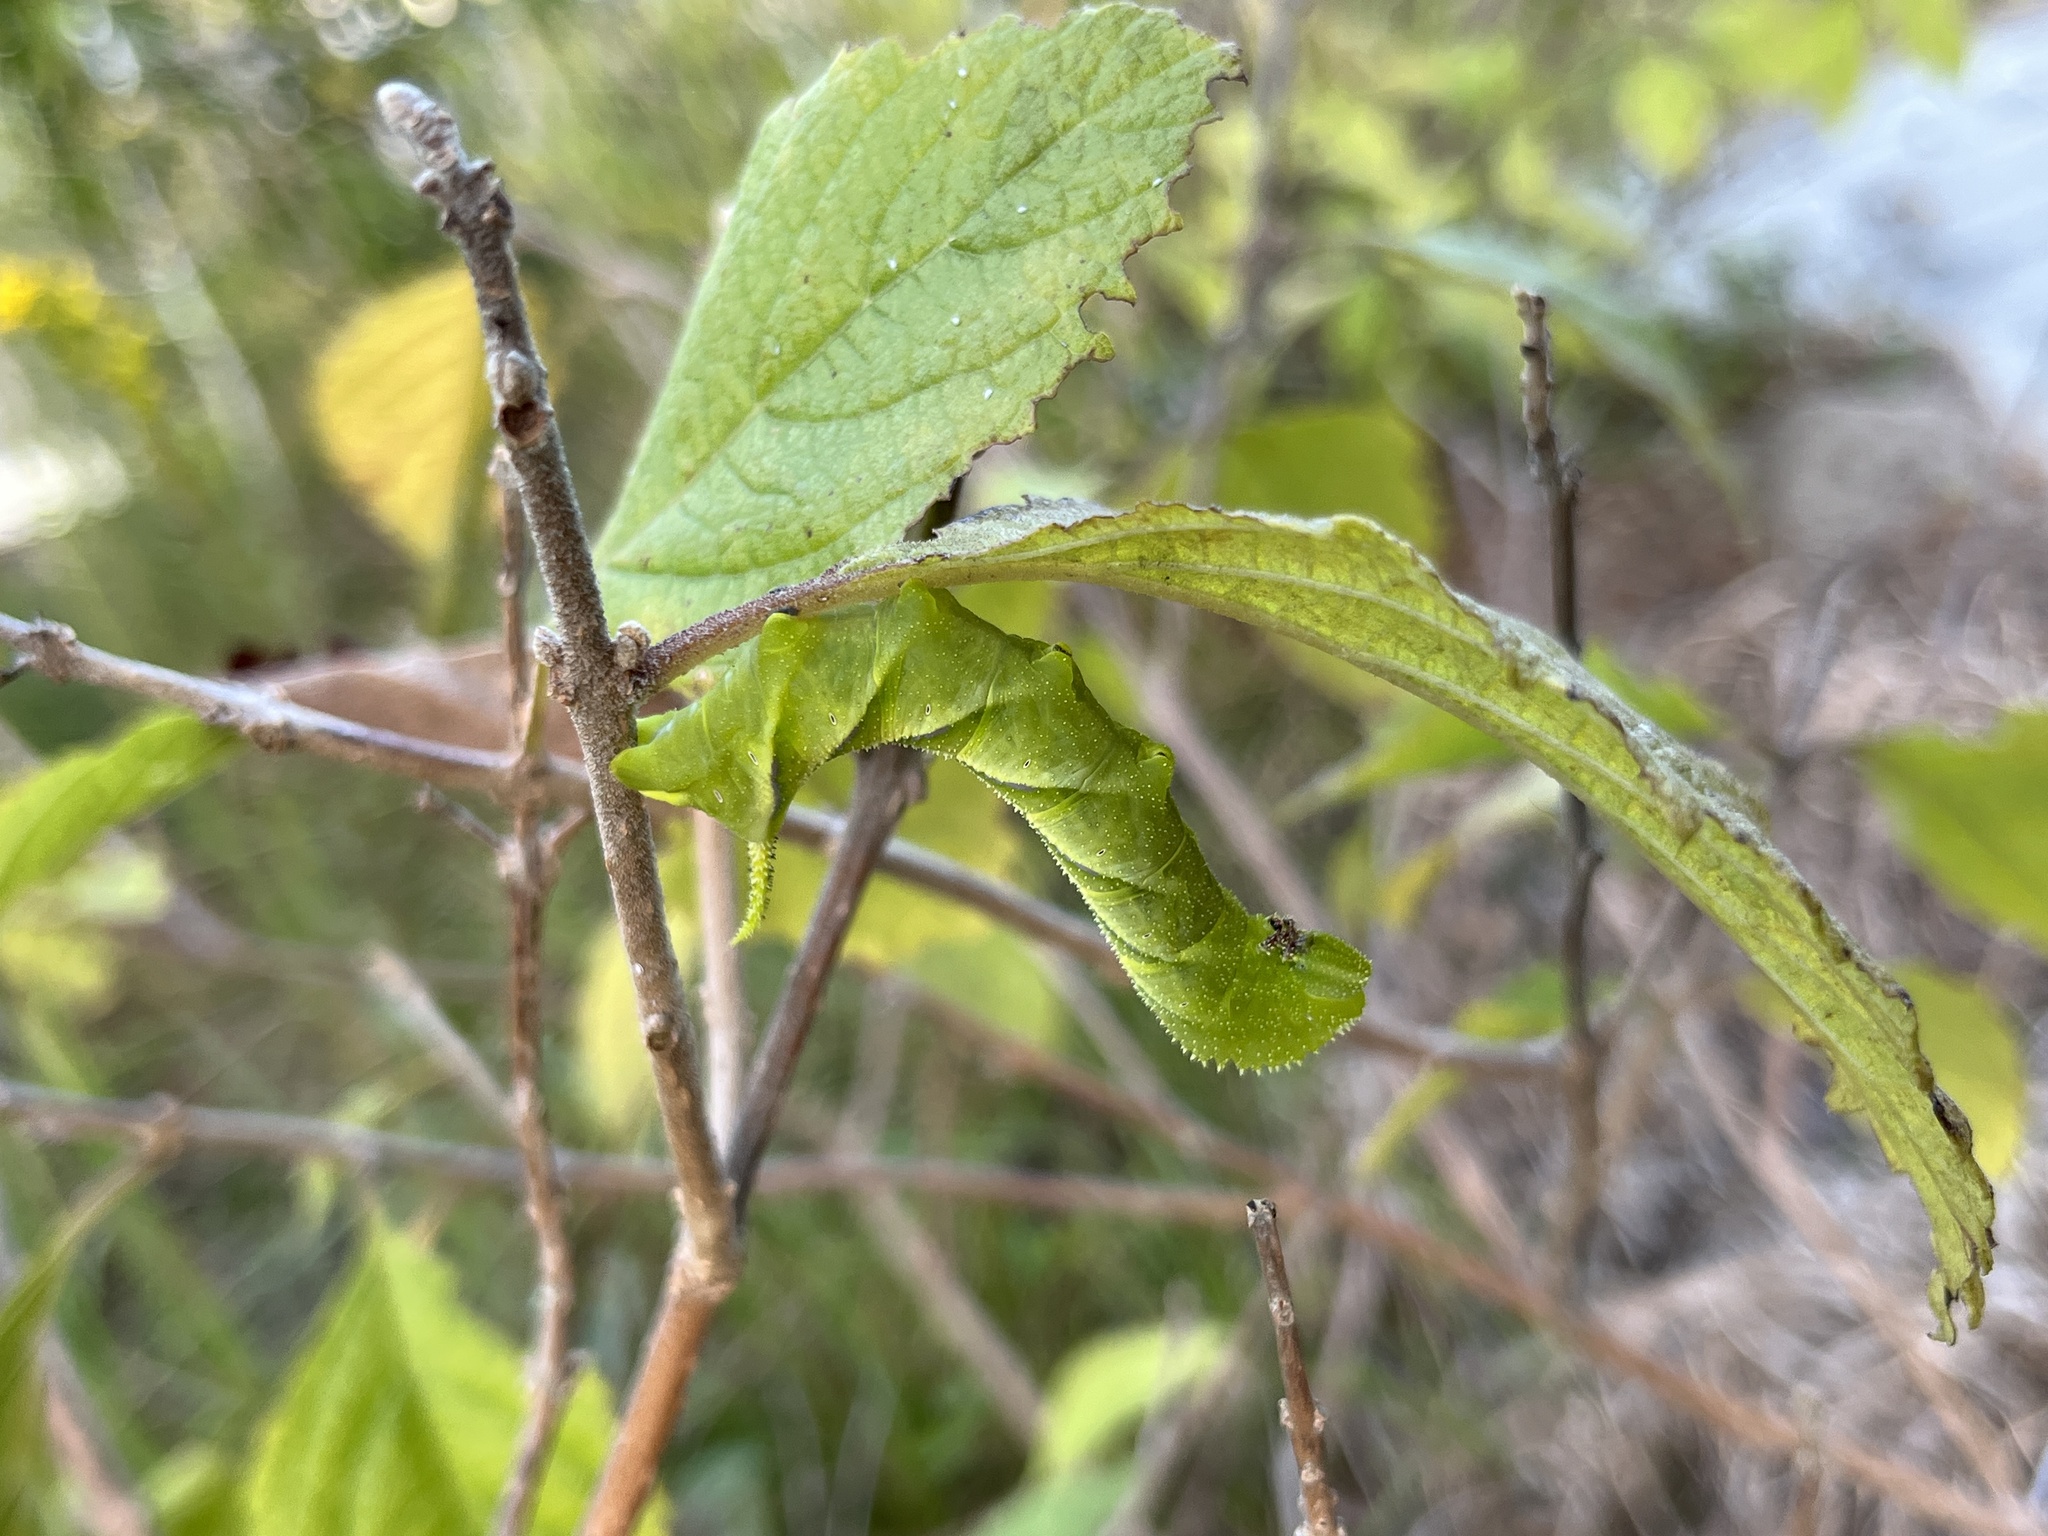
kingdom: Animalia
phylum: Arthropoda
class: Insecta
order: Lepidoptera
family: Sphingidae
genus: Manduca
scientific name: Manduca rustica
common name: Rustic sphinx
